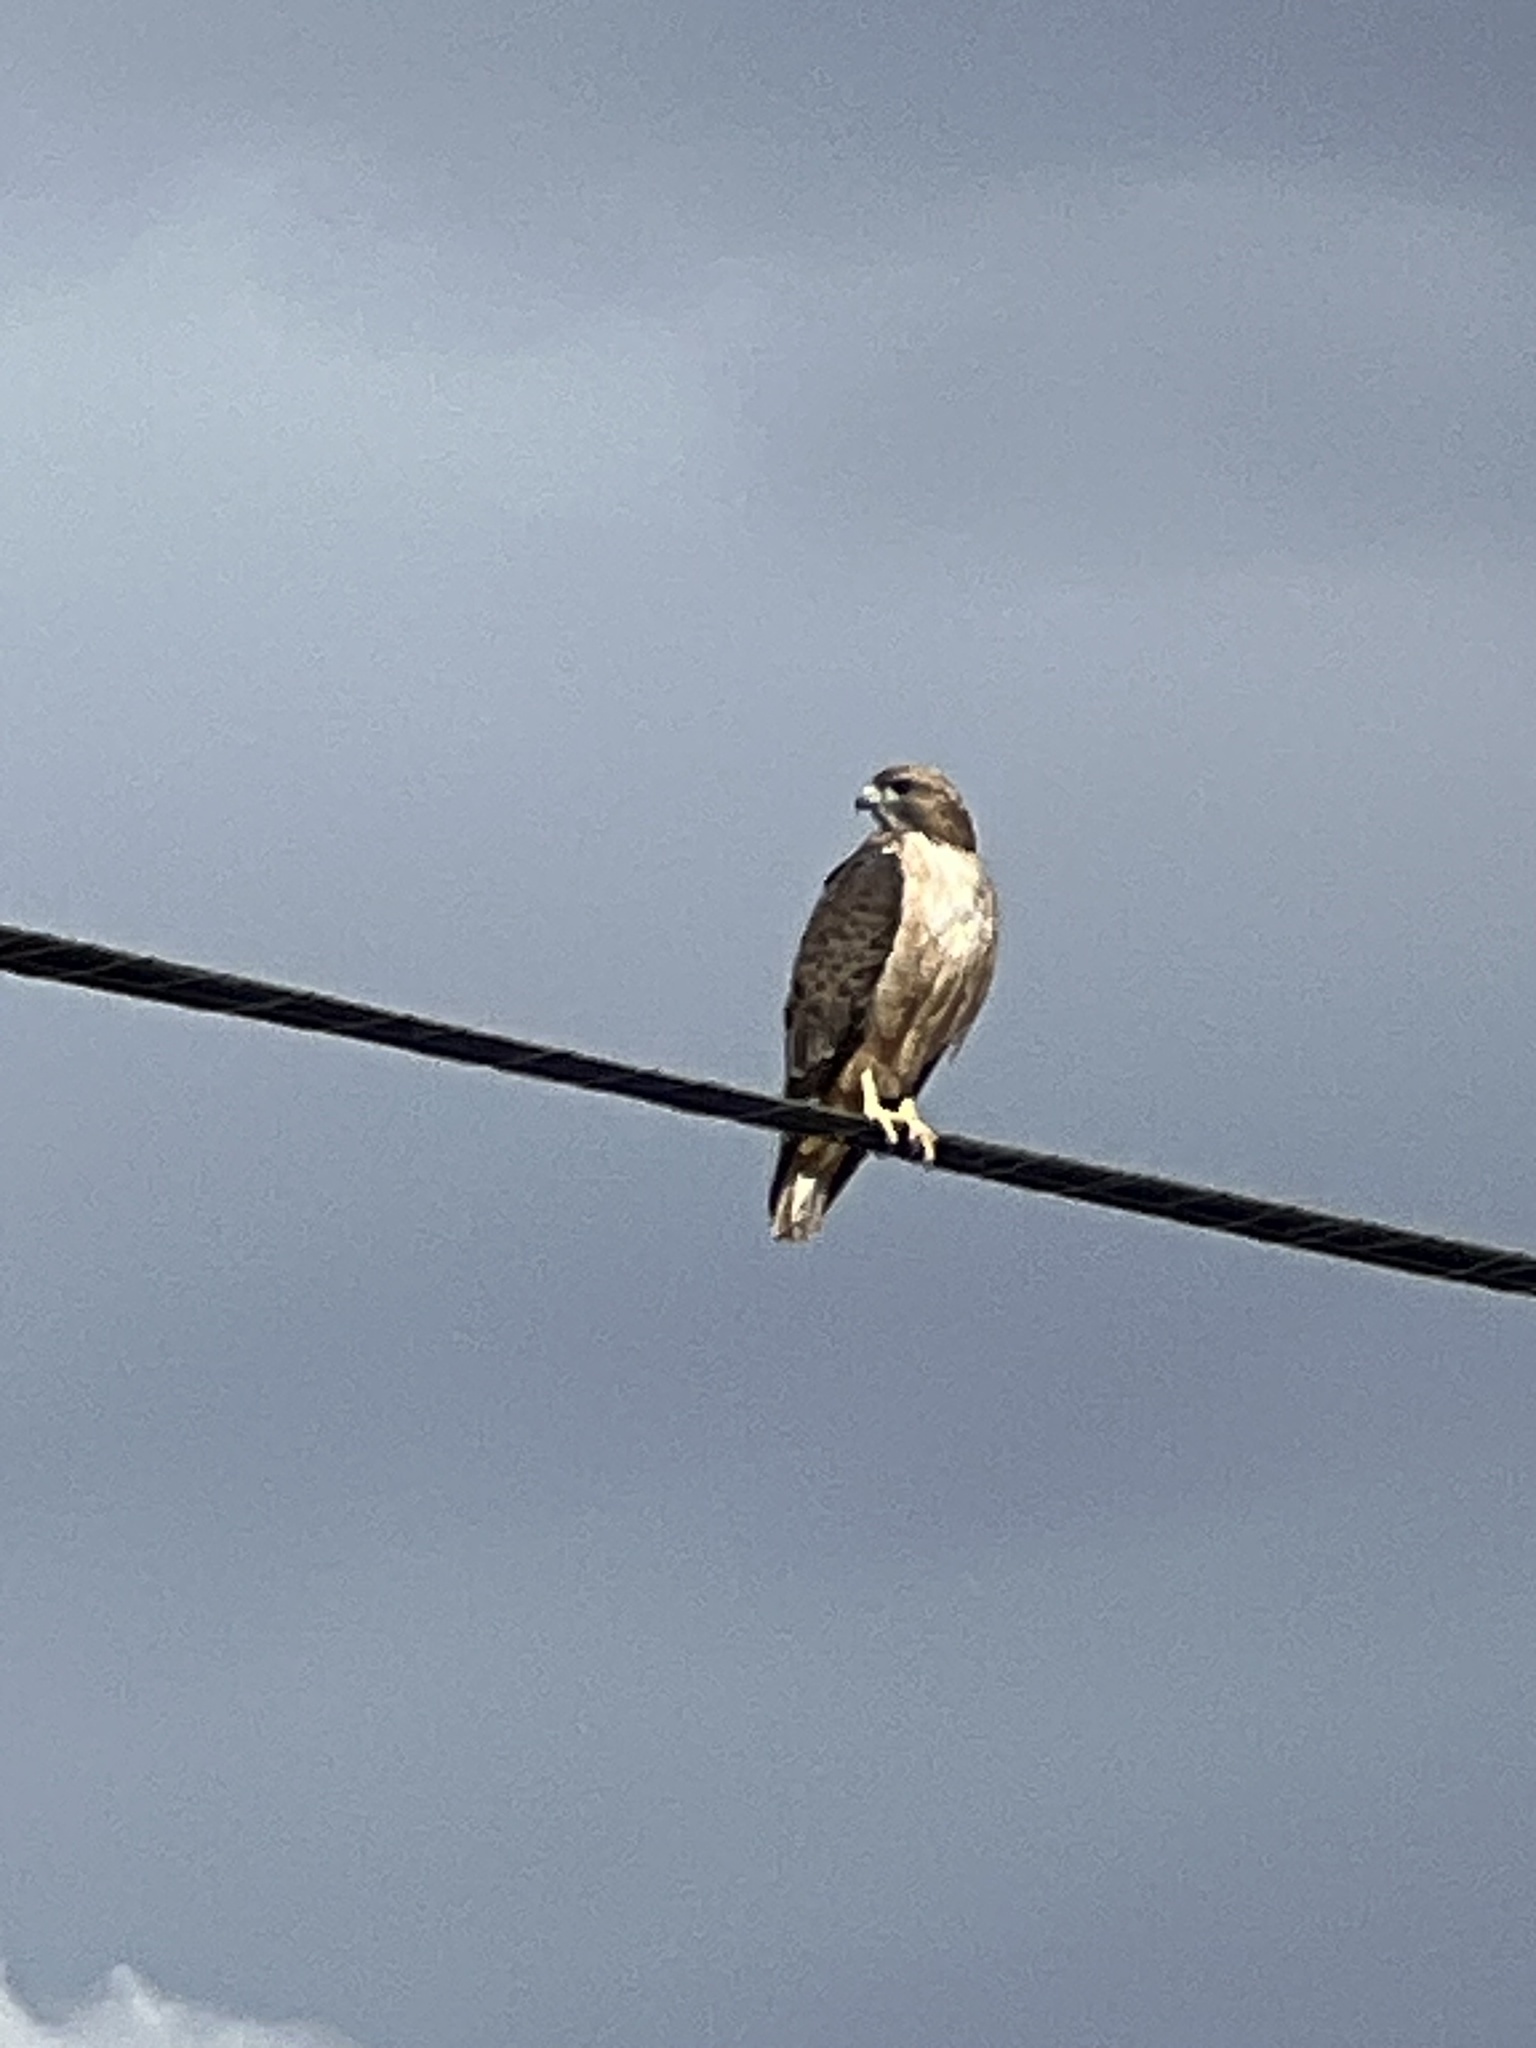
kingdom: Animalia
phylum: Chordata
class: Aves
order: Accipitriformes
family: Accipitridae
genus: Buteo
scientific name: Buteo jamaicensis
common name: Red-tailed hawk
